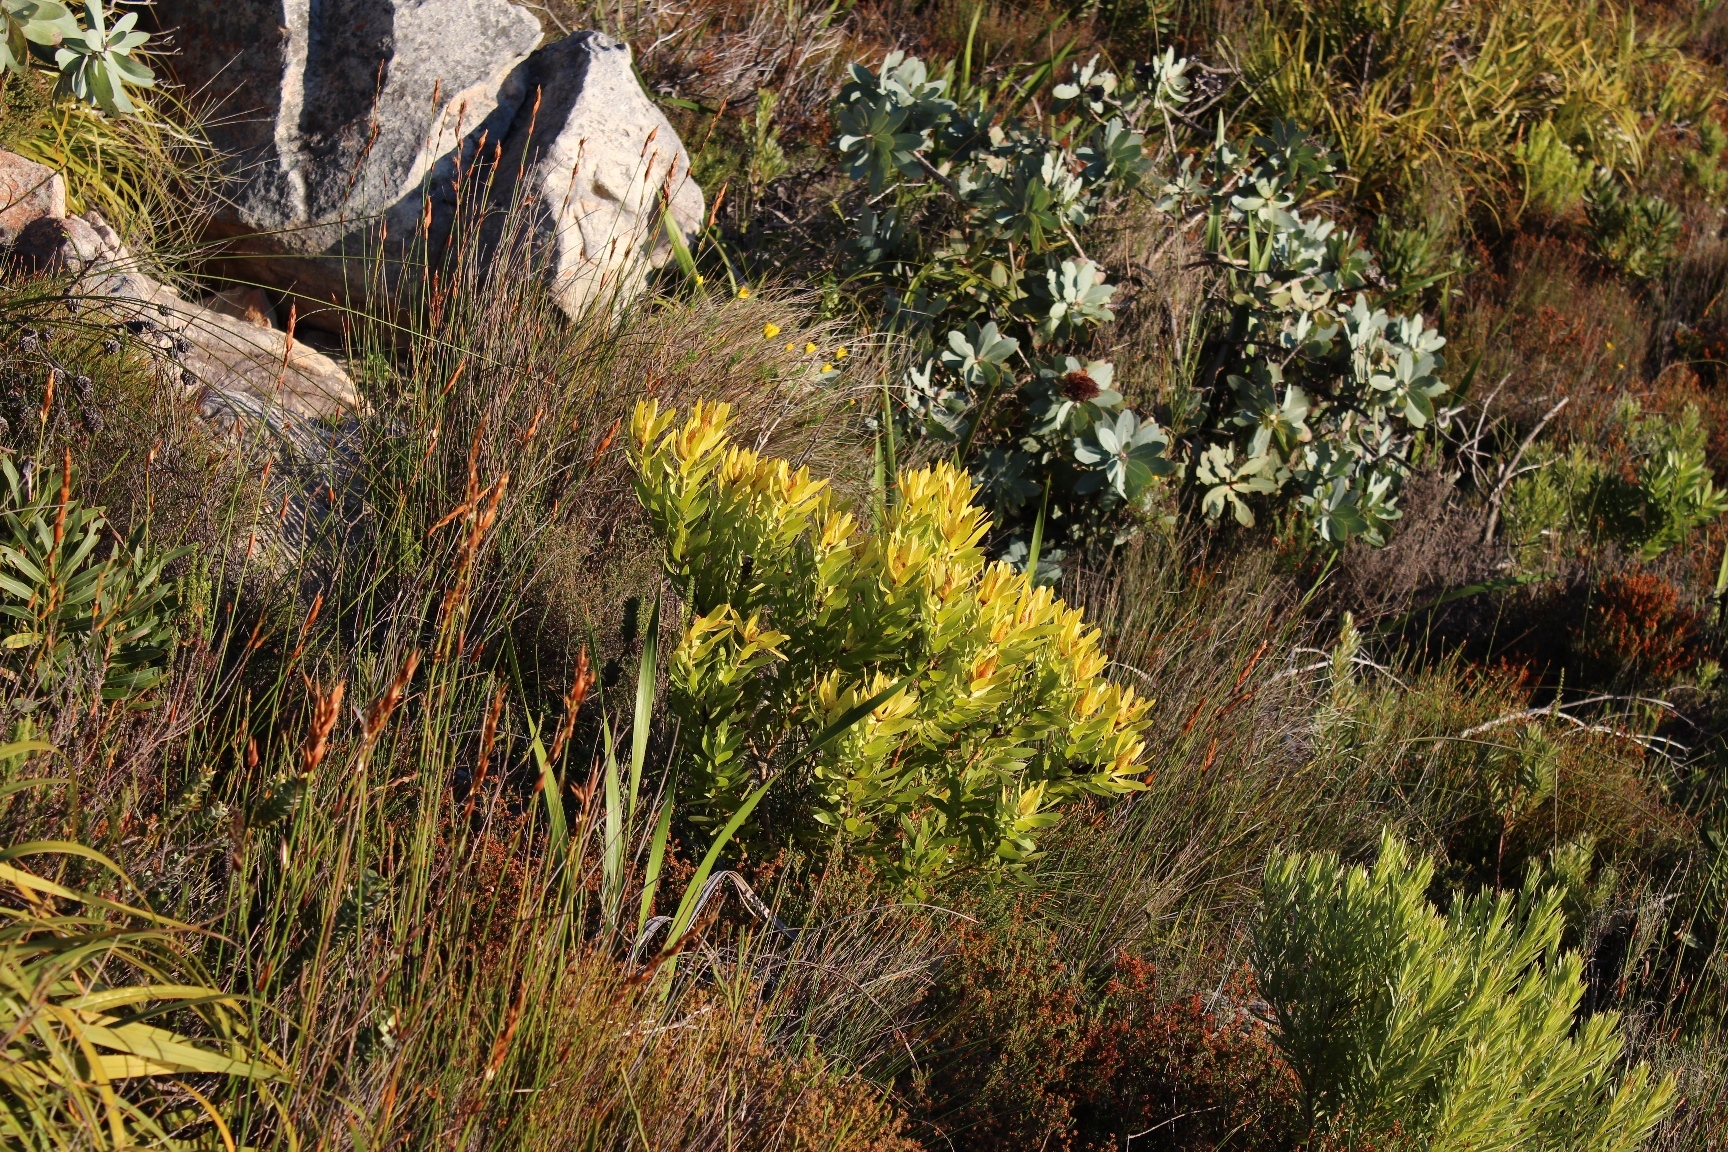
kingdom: Plantae
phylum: Tracheophyta
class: Magnoliopsida
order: Proteales
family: Proteaceae
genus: Leucadendron
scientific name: Leucadendron laureolum
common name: Golden sunshinebush
